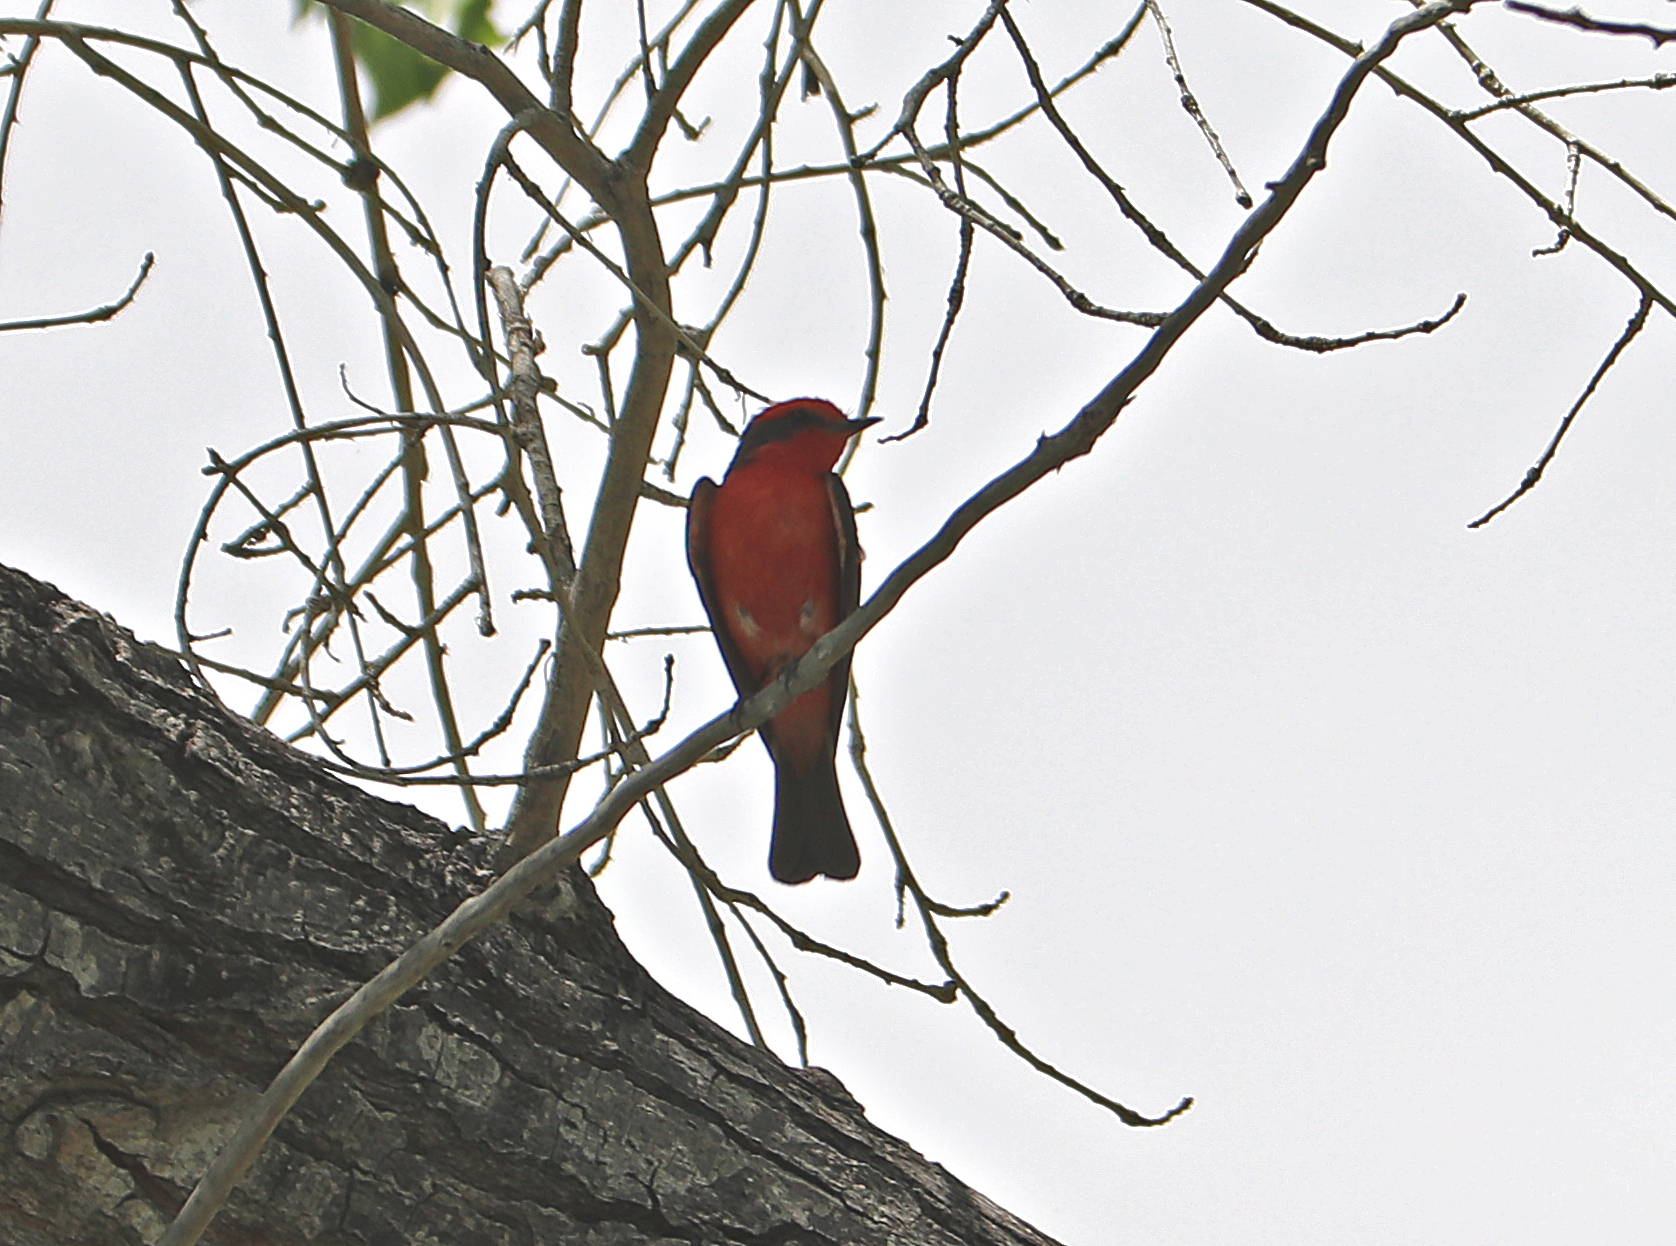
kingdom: Animalia
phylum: Chordata
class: Aves
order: Passeriformes
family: Tyrannidae
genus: Pyrocephalus
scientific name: Pyrocephalus rubinus
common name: Vermilion flycatcher
